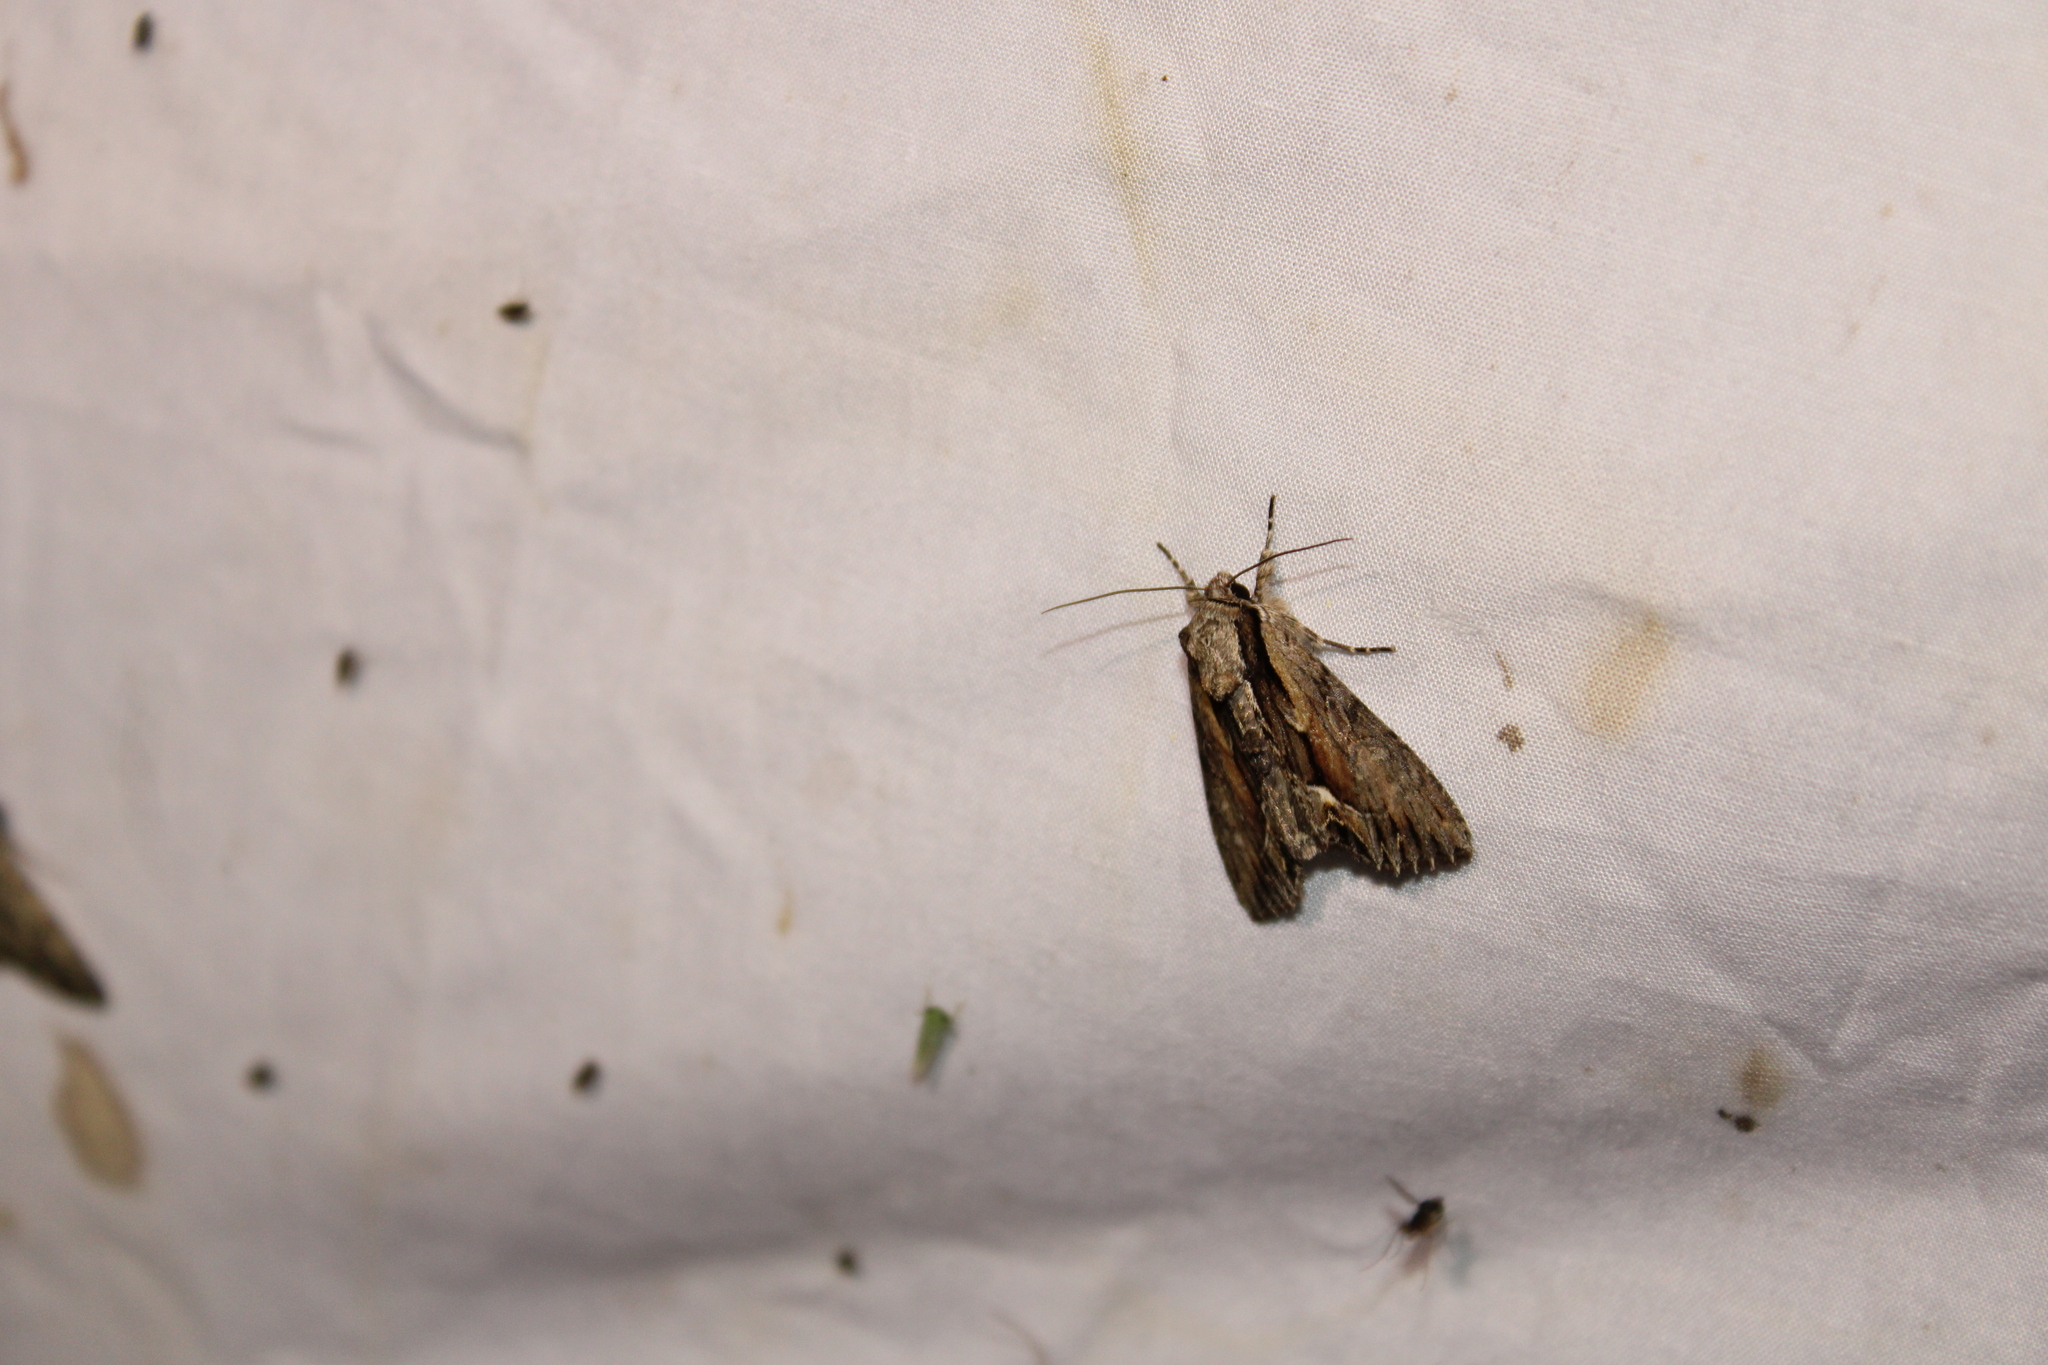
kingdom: Animalia
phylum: Arthropoda
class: Insecta
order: Lepidoptera
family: Noctuidae
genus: Hyppa
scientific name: Hyppa xylinoides
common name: Common hyppa moth
